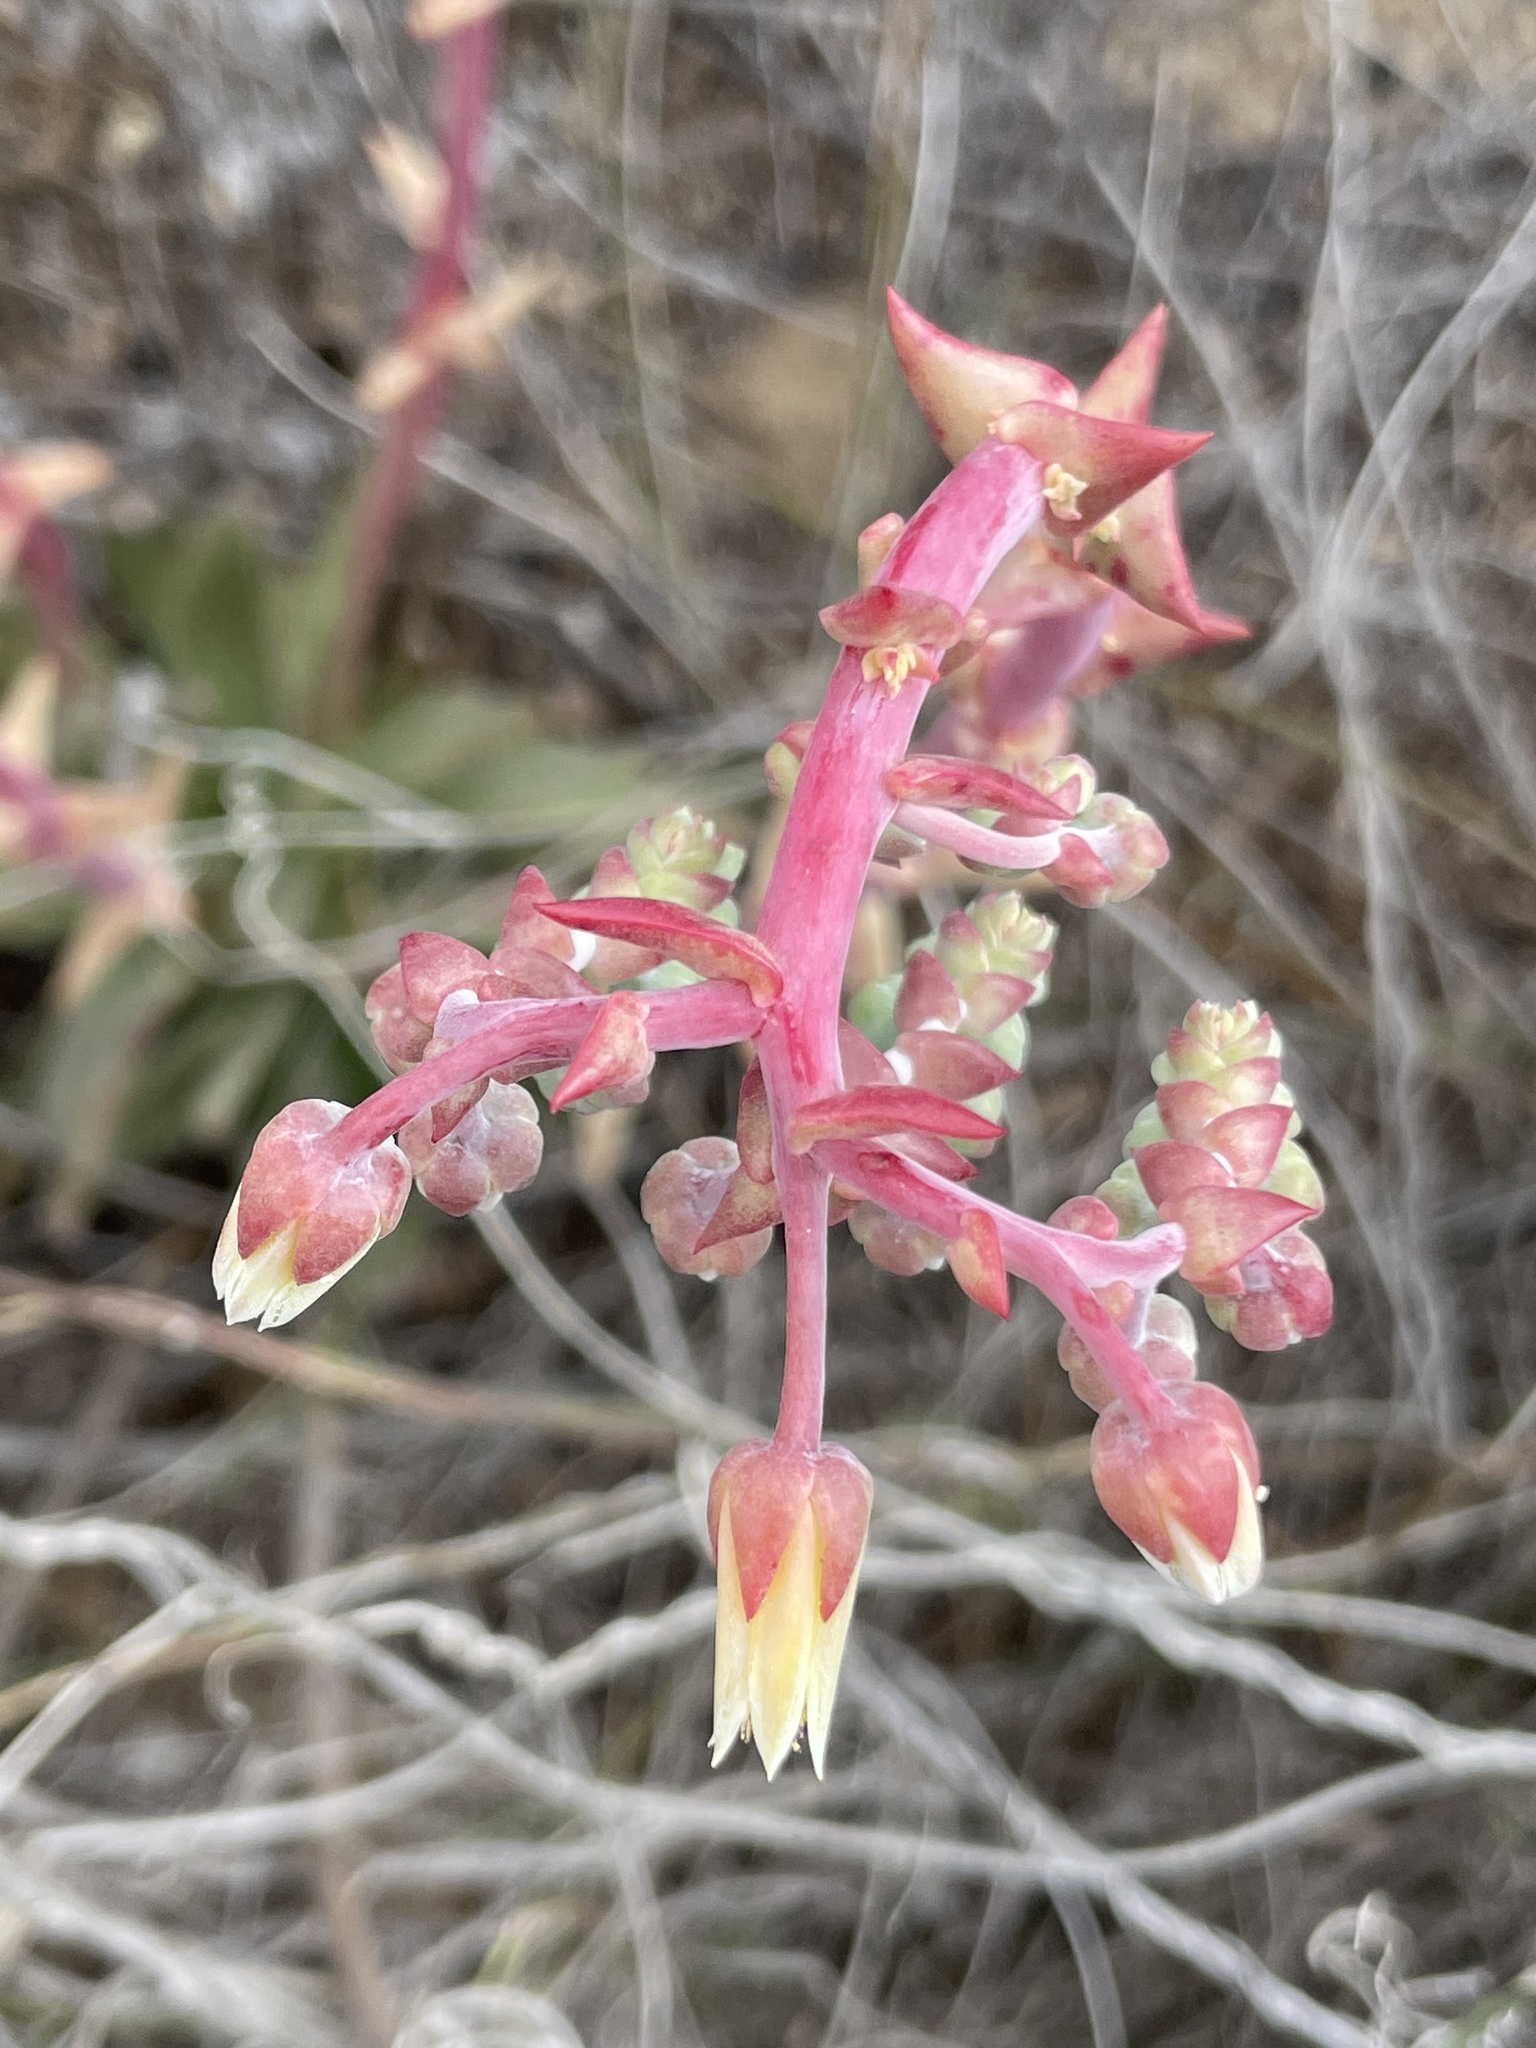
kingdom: Plantae
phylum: Tracheophyta
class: Magnoliopsida
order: Saxifragales
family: Crassulaceae
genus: Dudleya
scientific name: Dudleya cultrata
